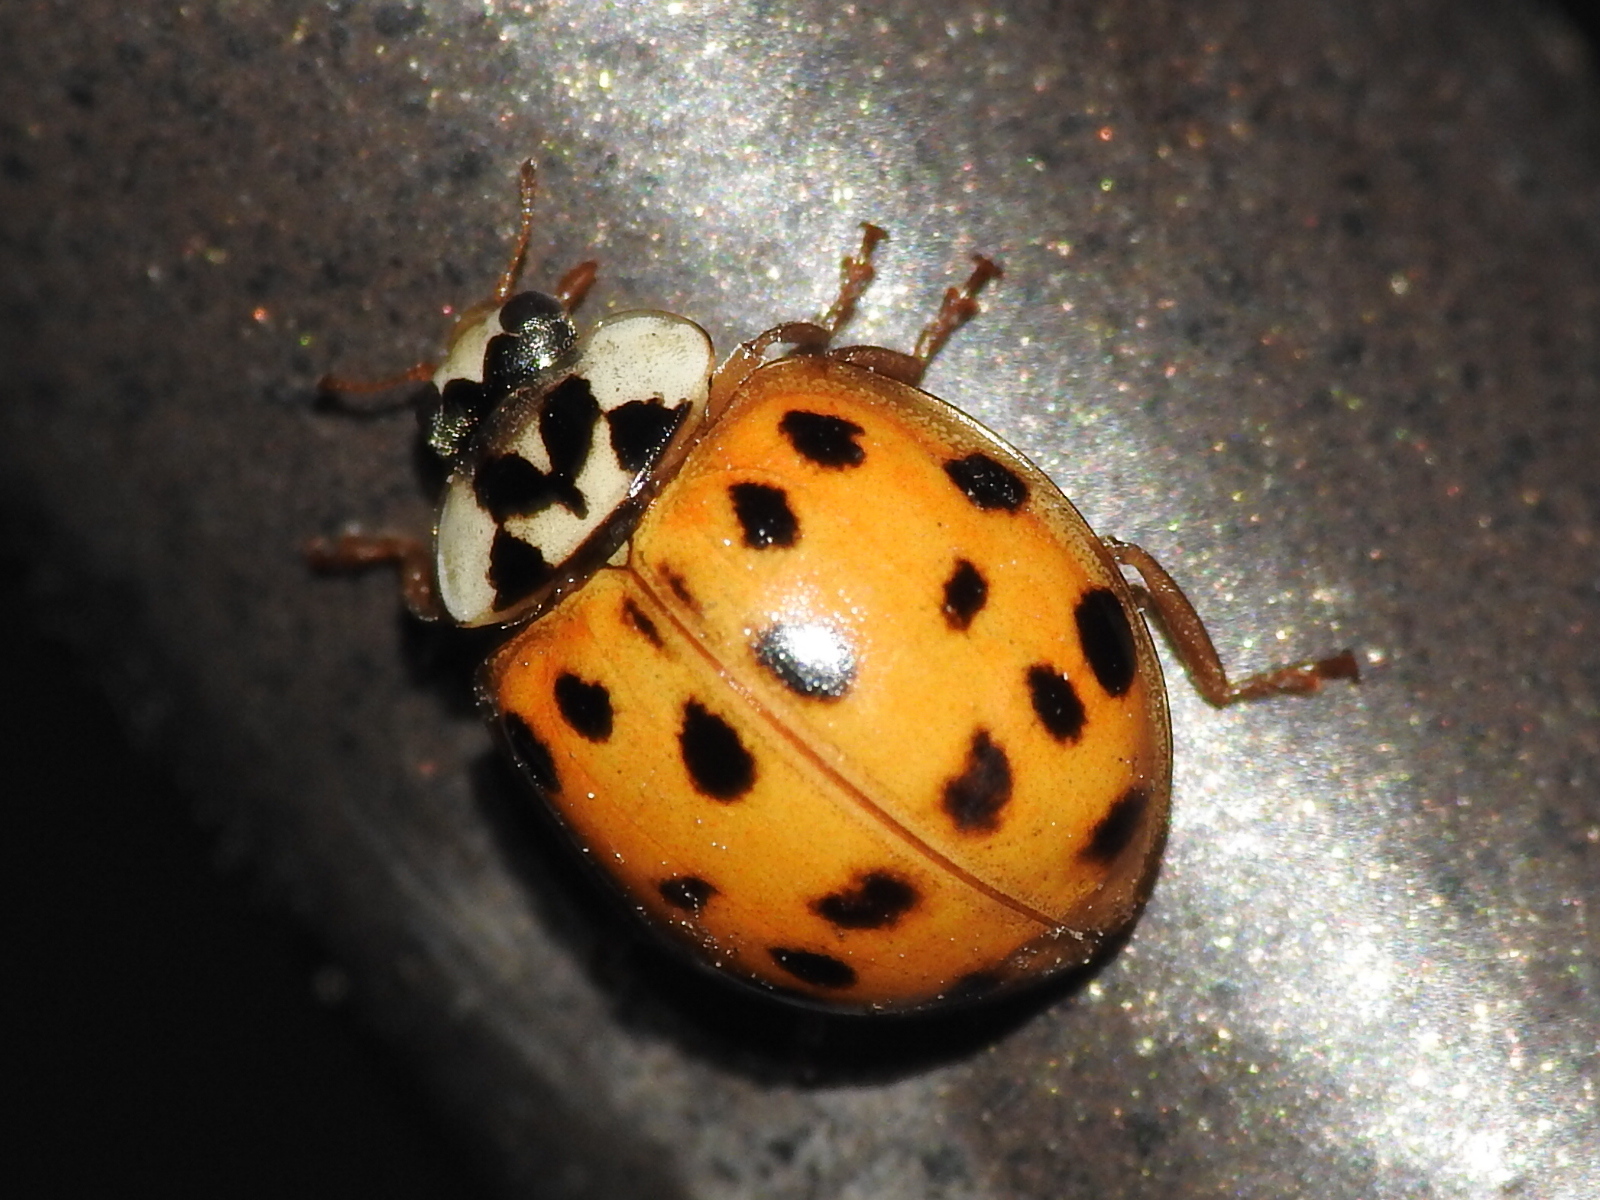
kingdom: Animalia
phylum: Arthropoda
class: Insecta
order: Coleoptera
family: Coccinellidae
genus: Harmonia
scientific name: Harmonia axyridis
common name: Harlequin ladybird
